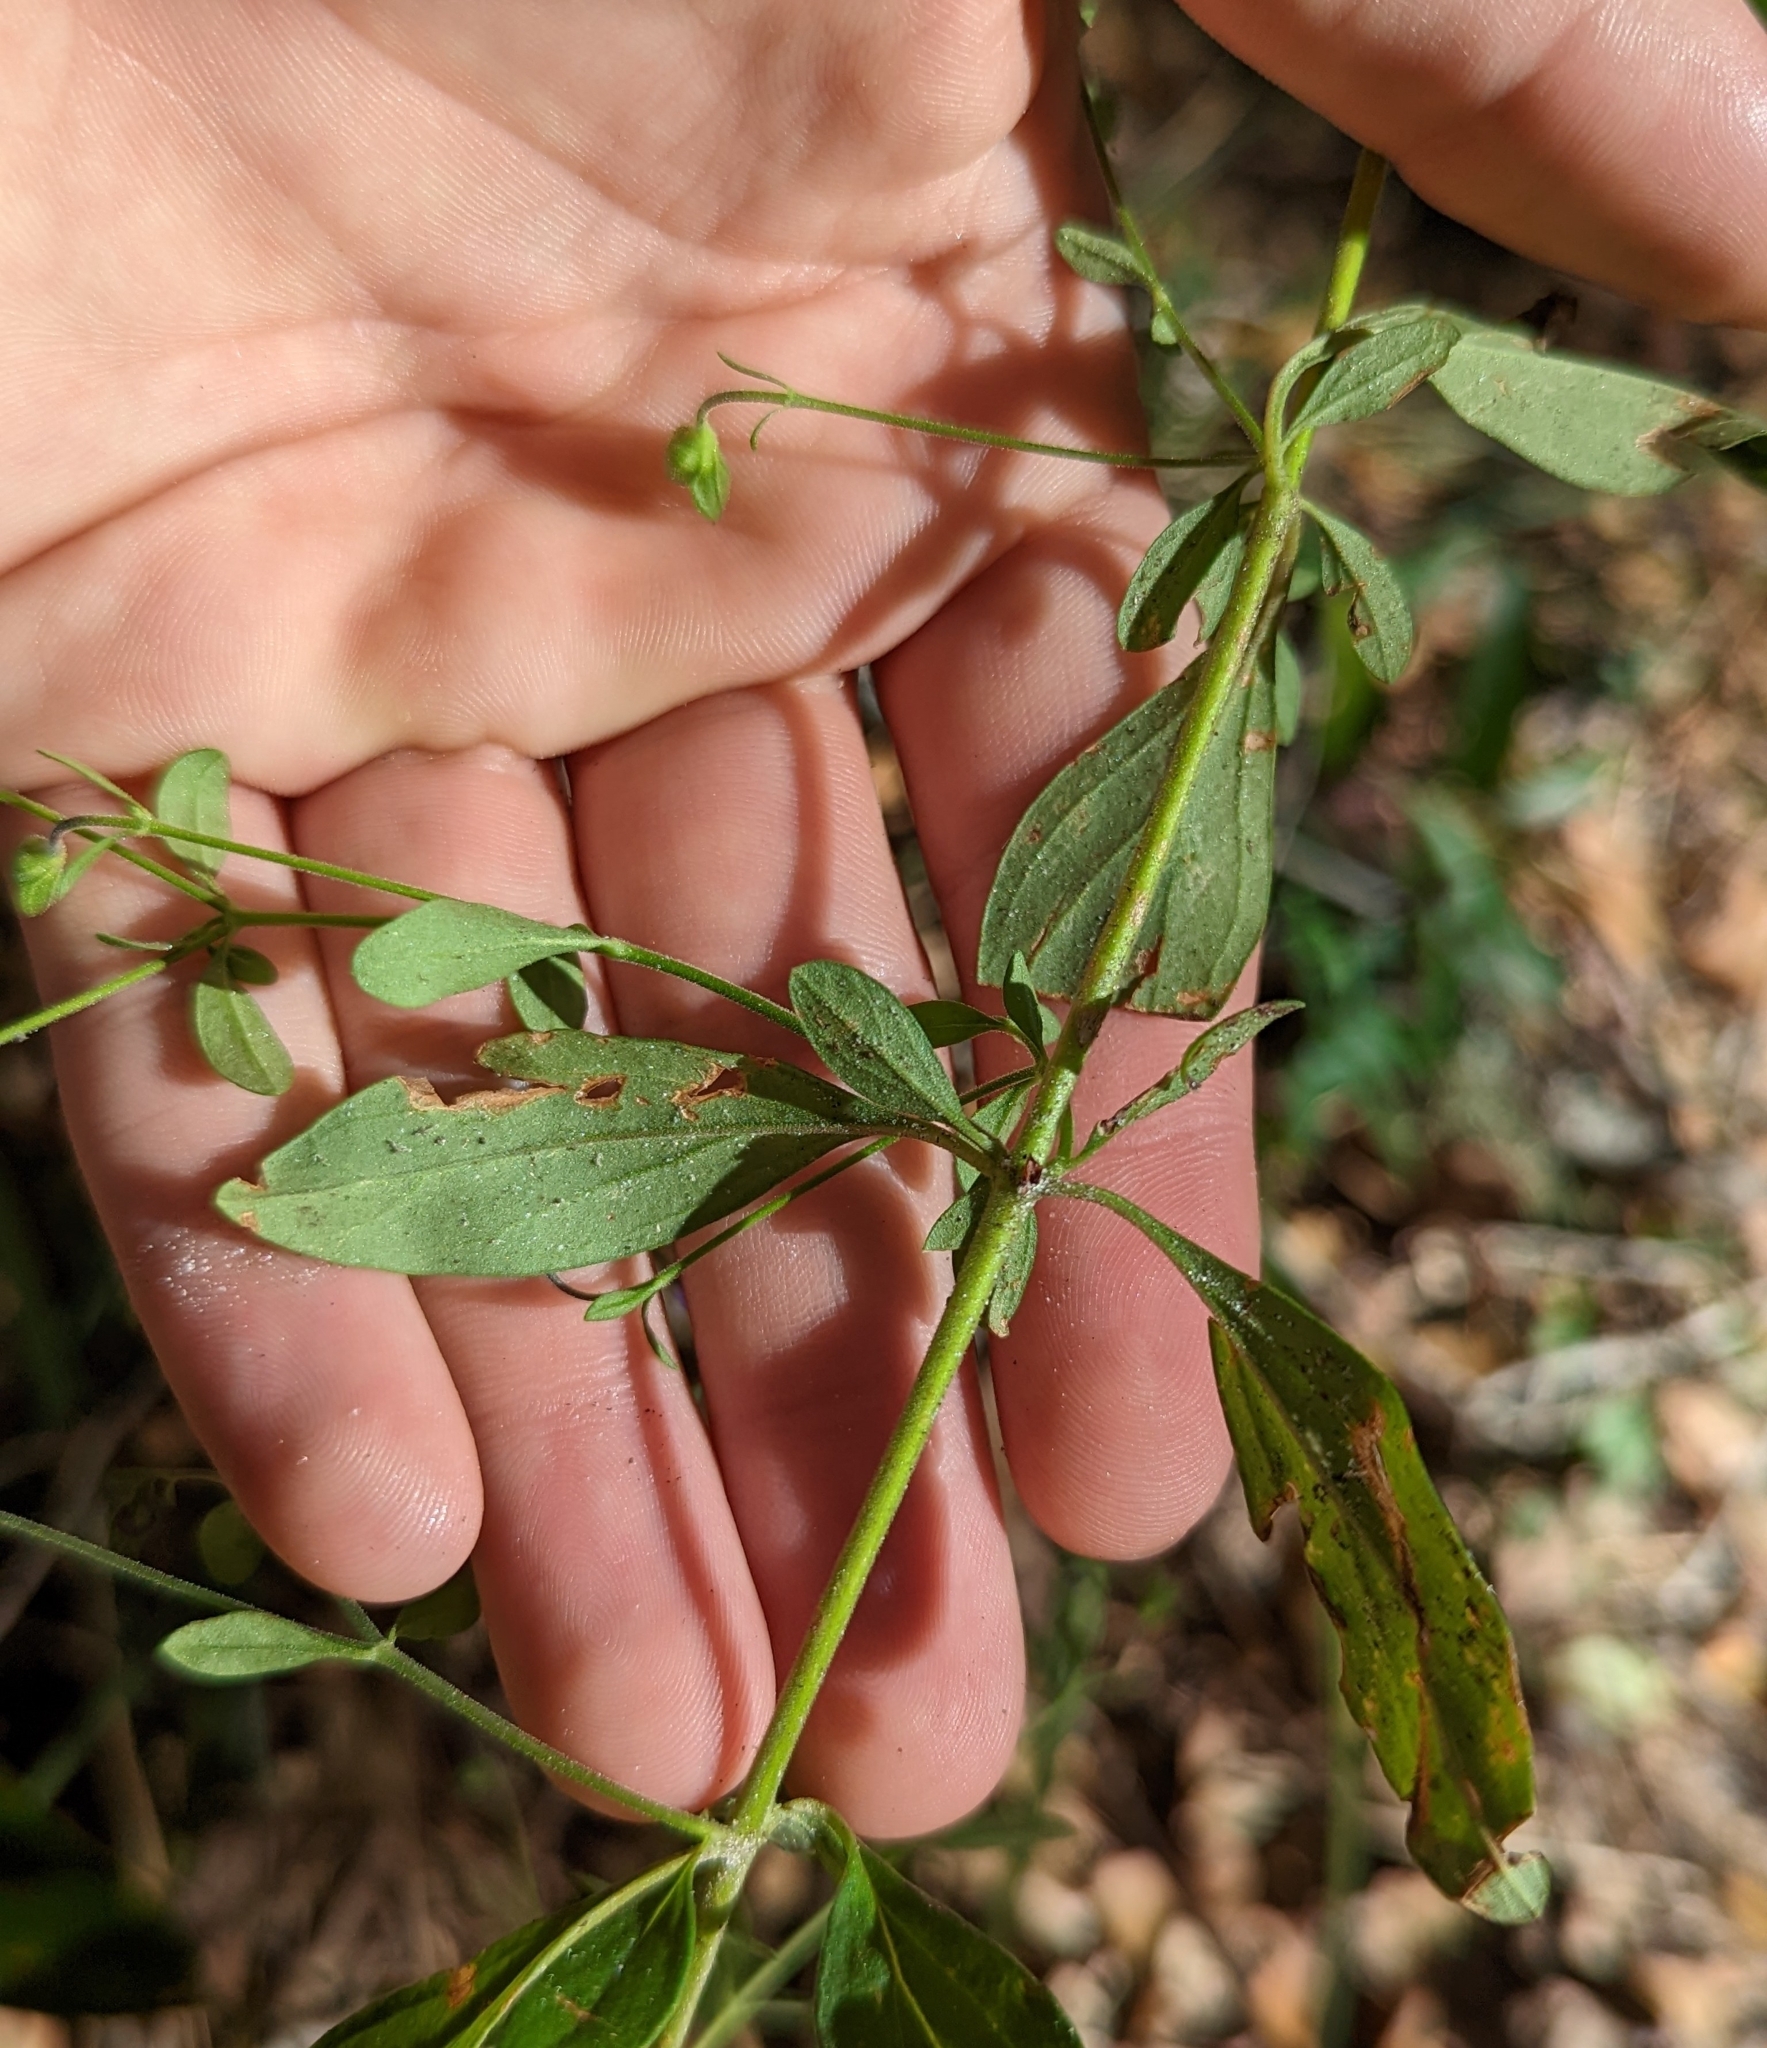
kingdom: Plantae
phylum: Tracheophyta
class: Magnoliopsida
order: Lamiales
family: Lamiaceae
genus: Trichostema
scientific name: Trichostema fruticosum
